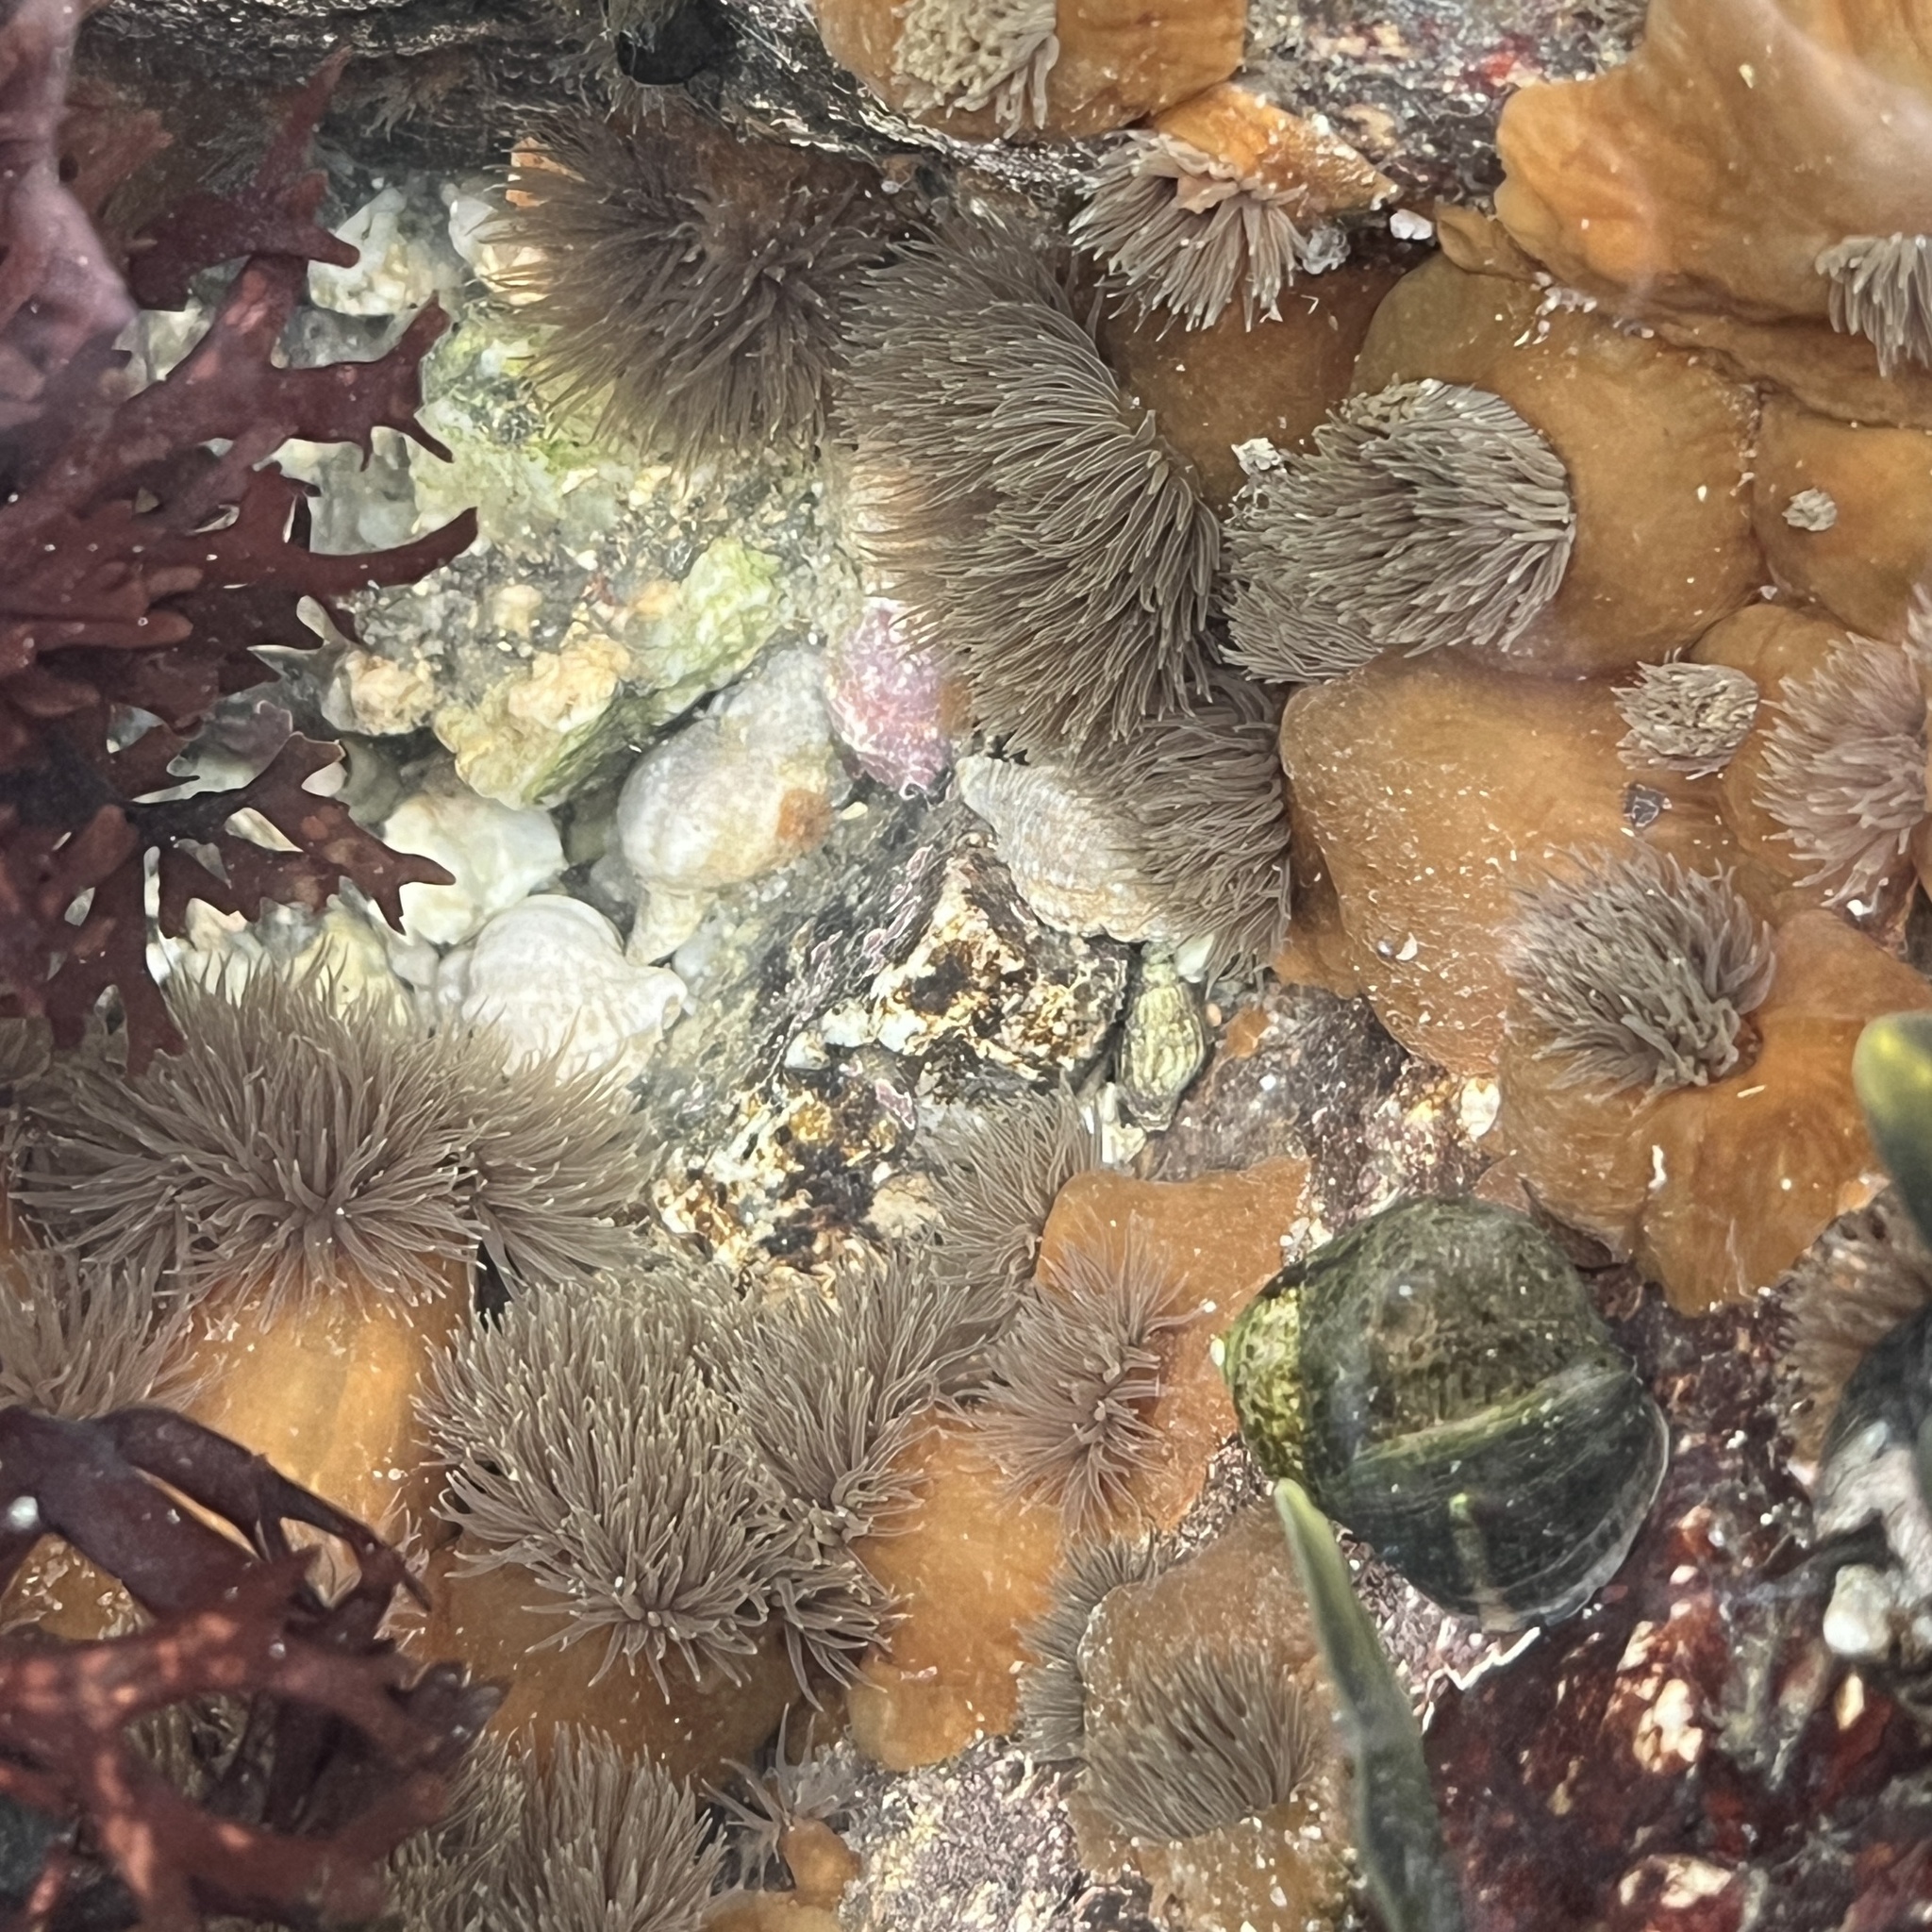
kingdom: Animalia
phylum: Cnidaria
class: Anthozoa
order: Actiniaria
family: Metridiidae
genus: Metridium
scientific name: Metridium senile
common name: Clonal plumose anemone
